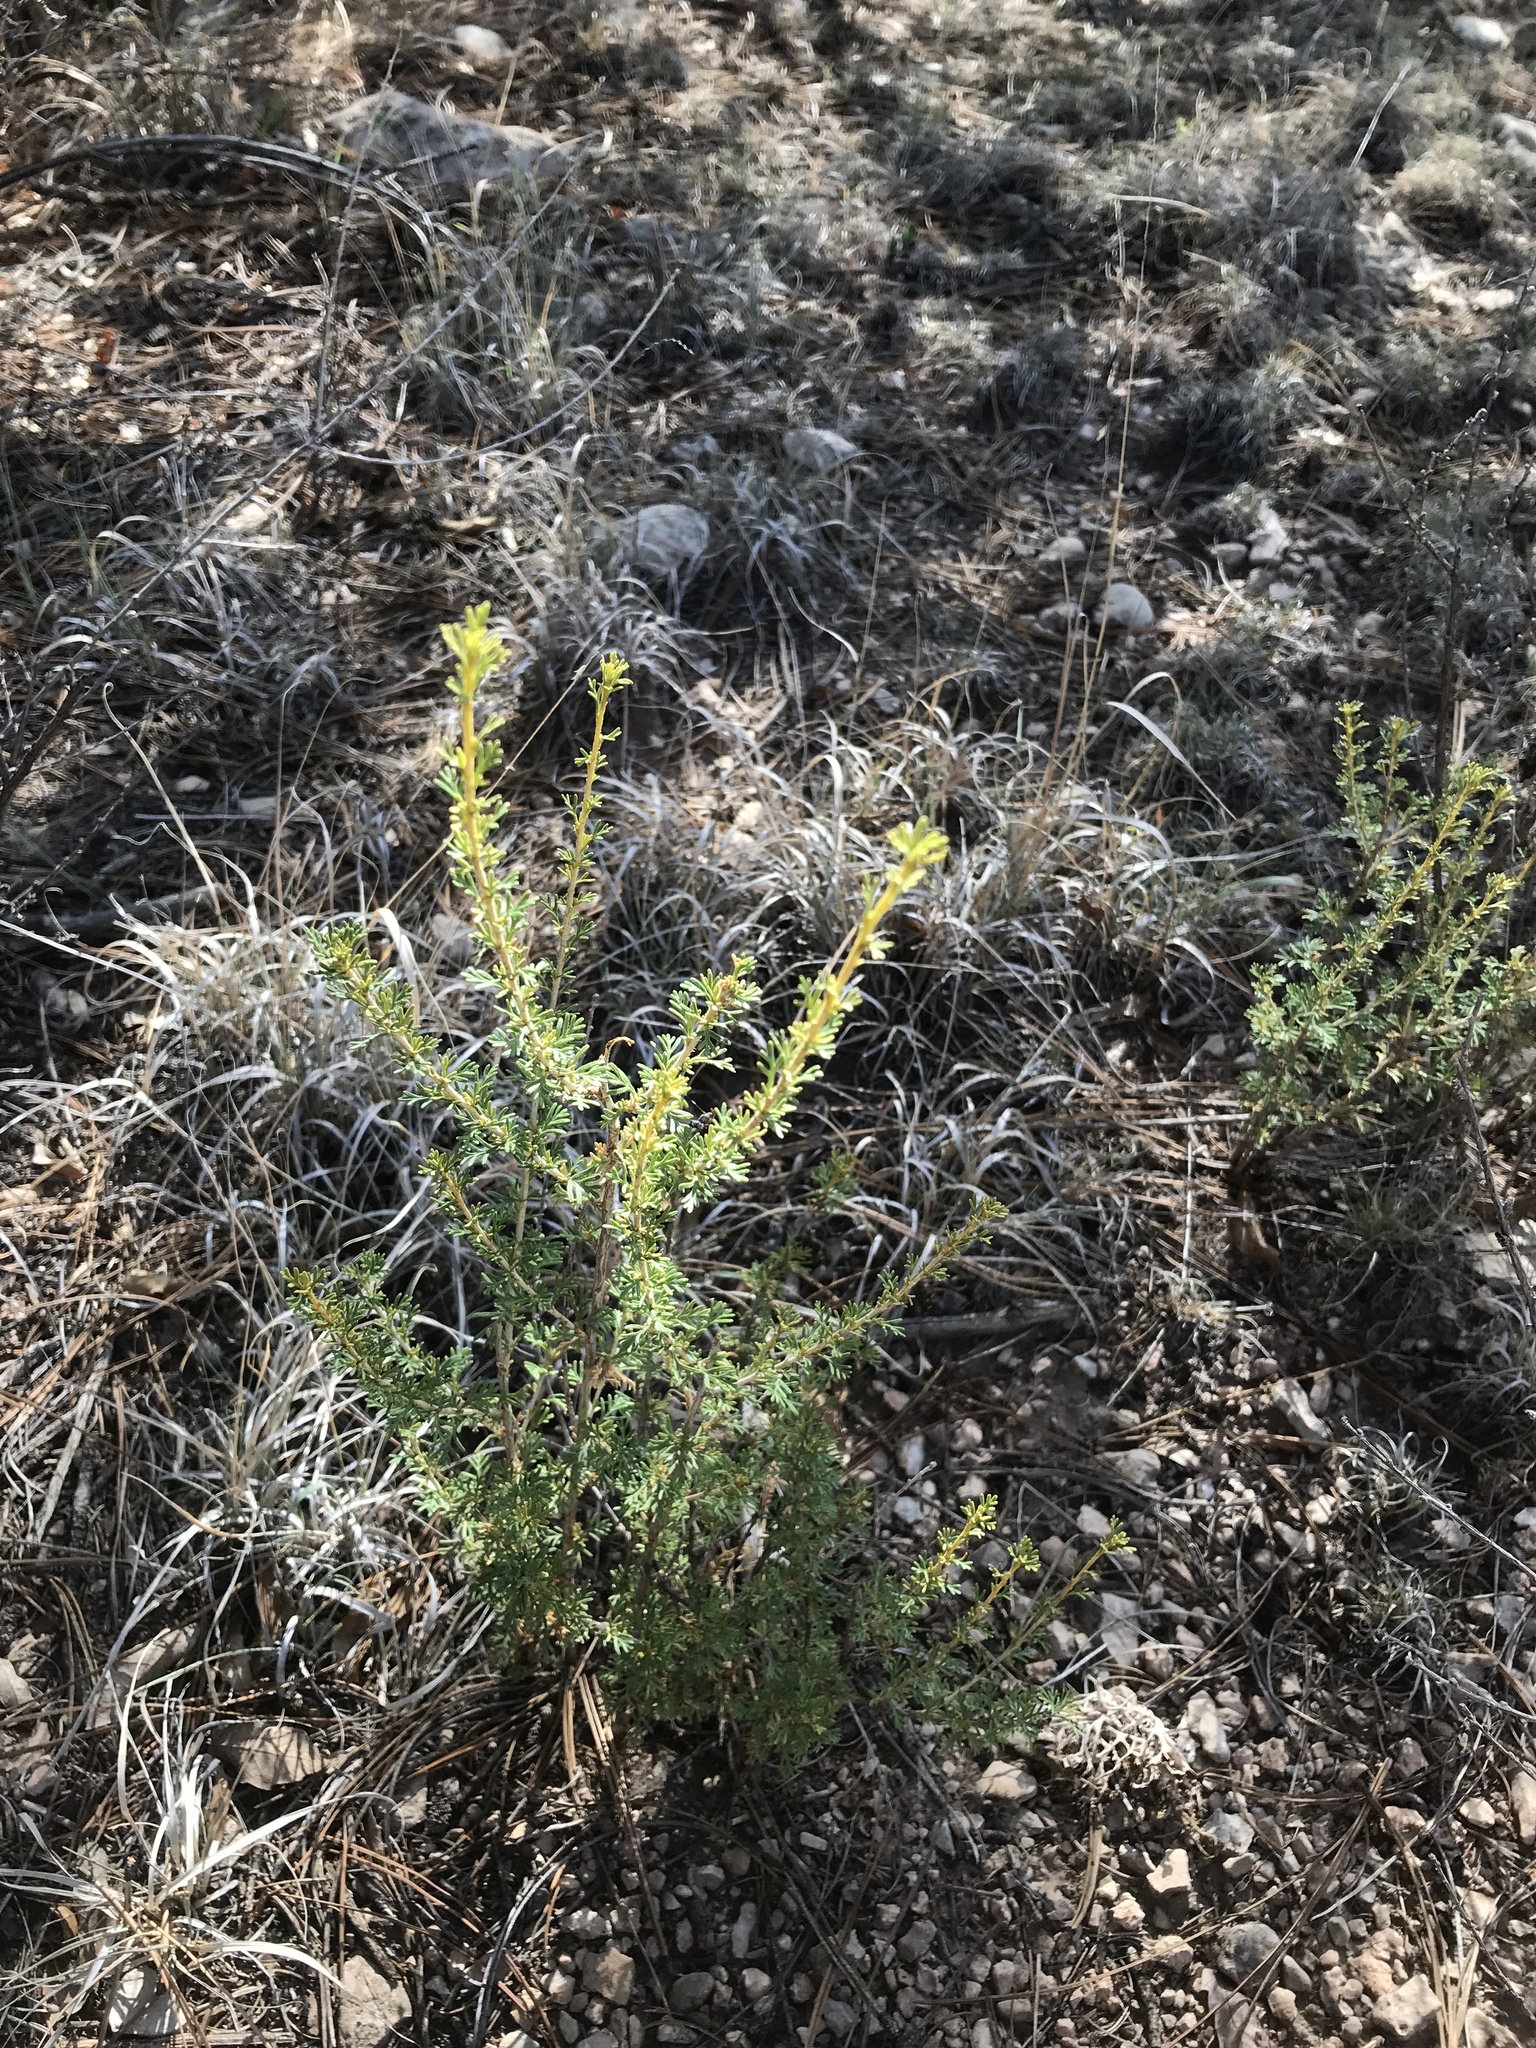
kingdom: Plantae
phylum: Tracheophyta
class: Magnoliopsida
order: Rosales
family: Rosaceae
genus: Fallugia
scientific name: Fallugia paradoxa
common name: Apache-plume
